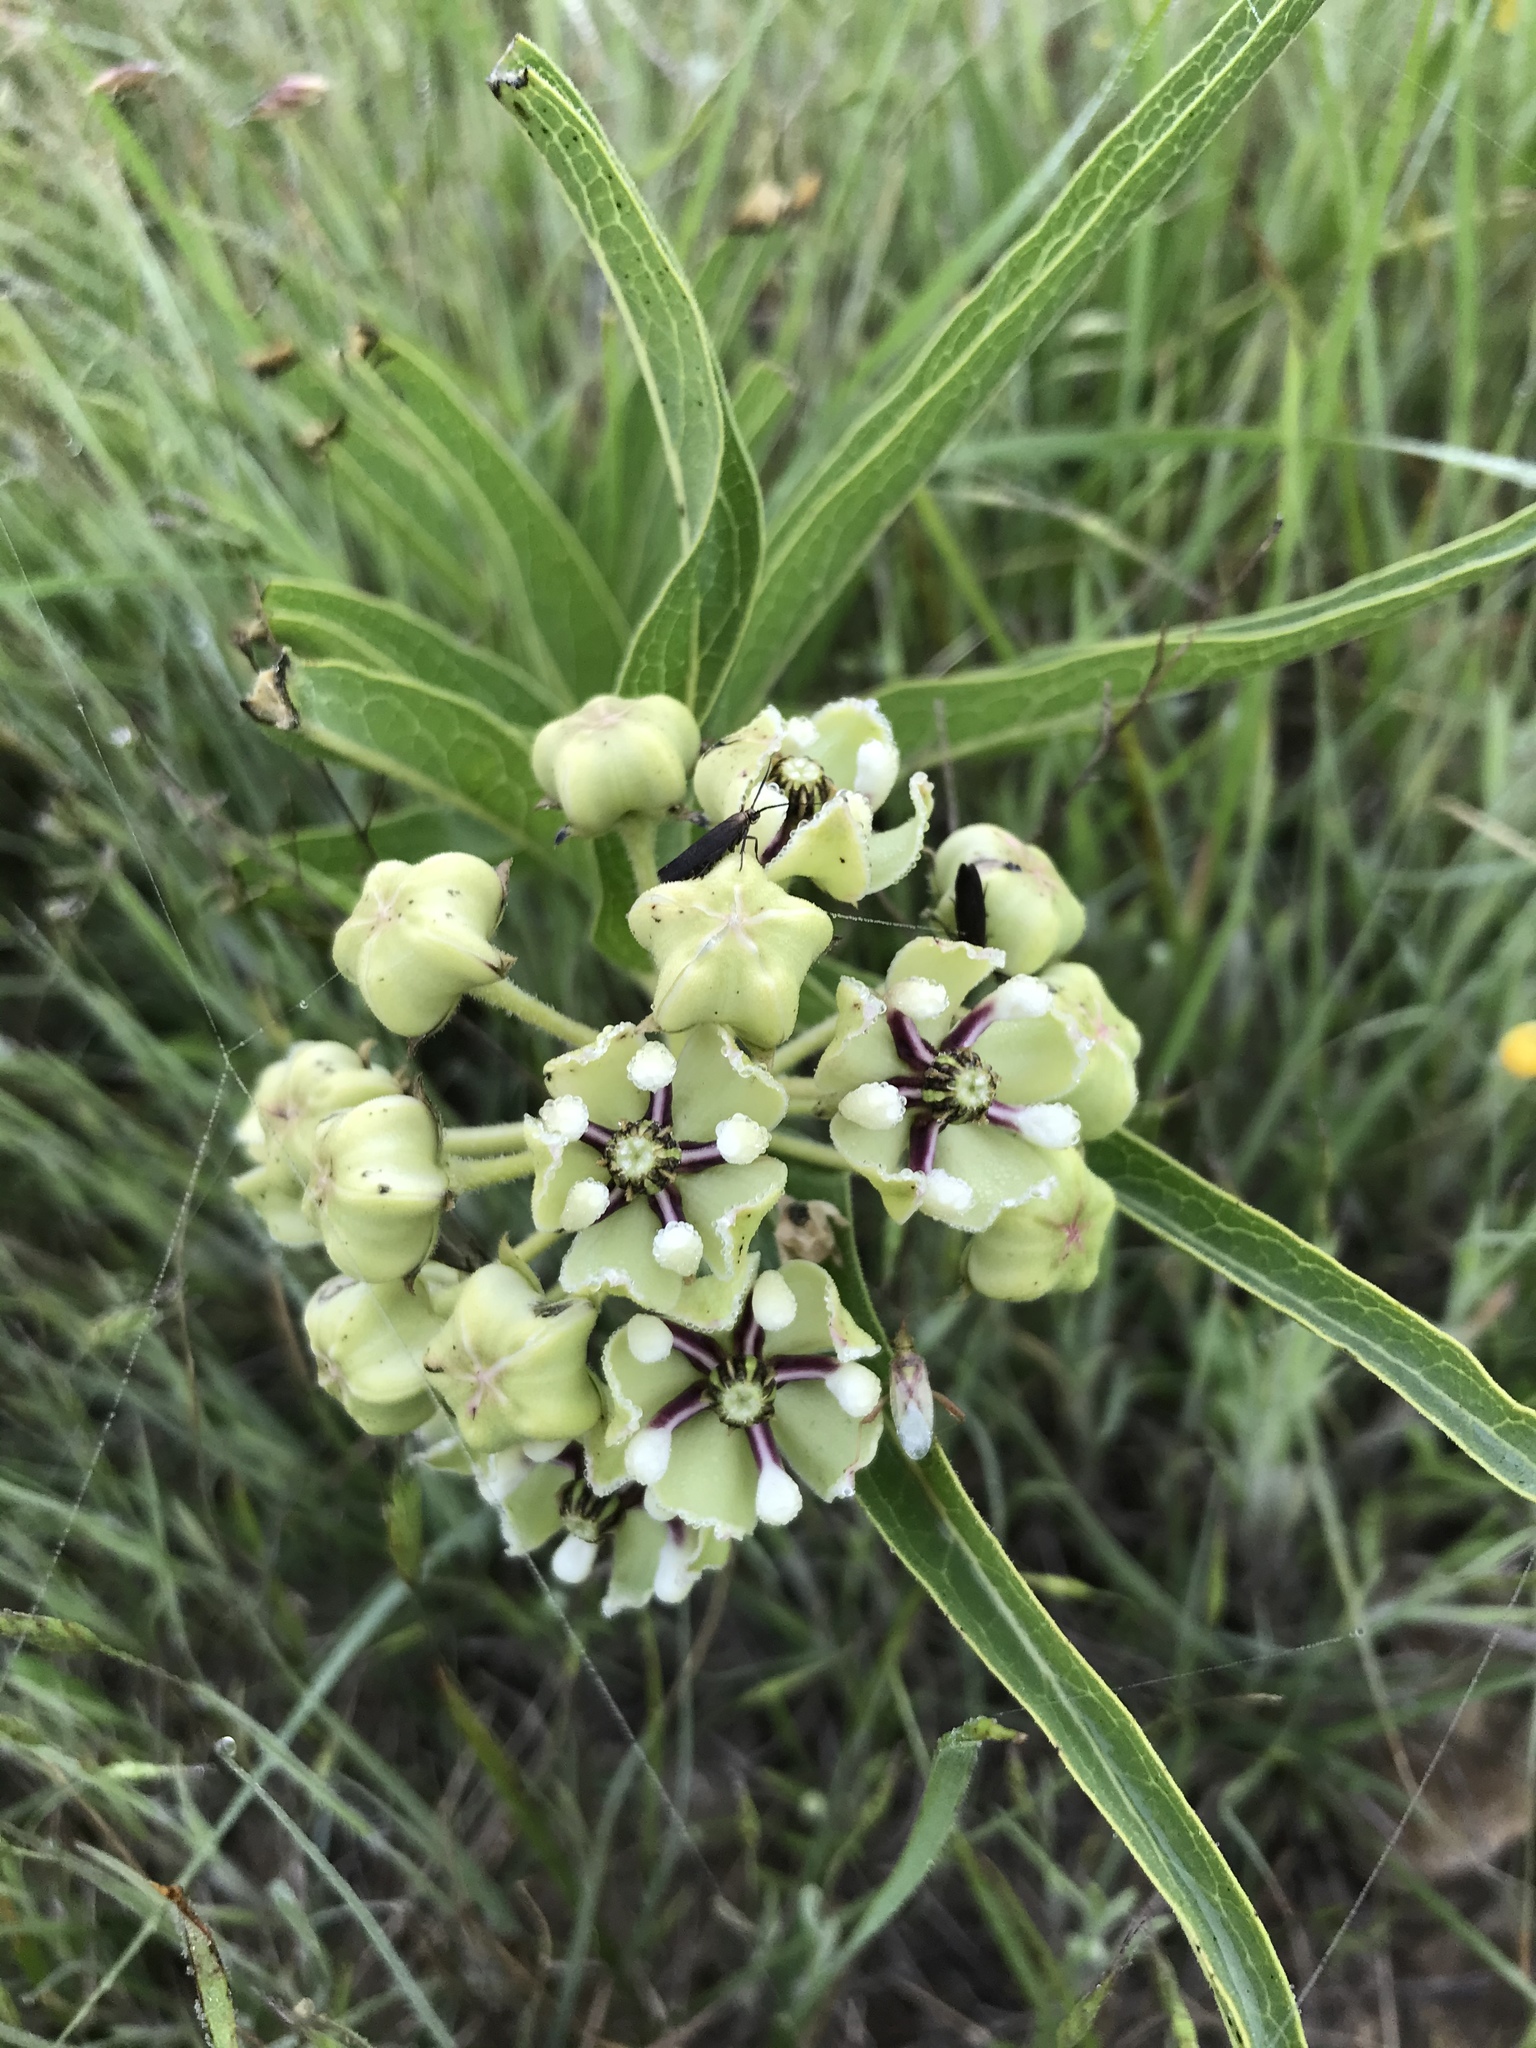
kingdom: Plantae
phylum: Tracheophyta
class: Magnoliopsida
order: Gentianales
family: Apocynaceae
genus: Asclepias
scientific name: Asclepias asperula
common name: Antelope horns
